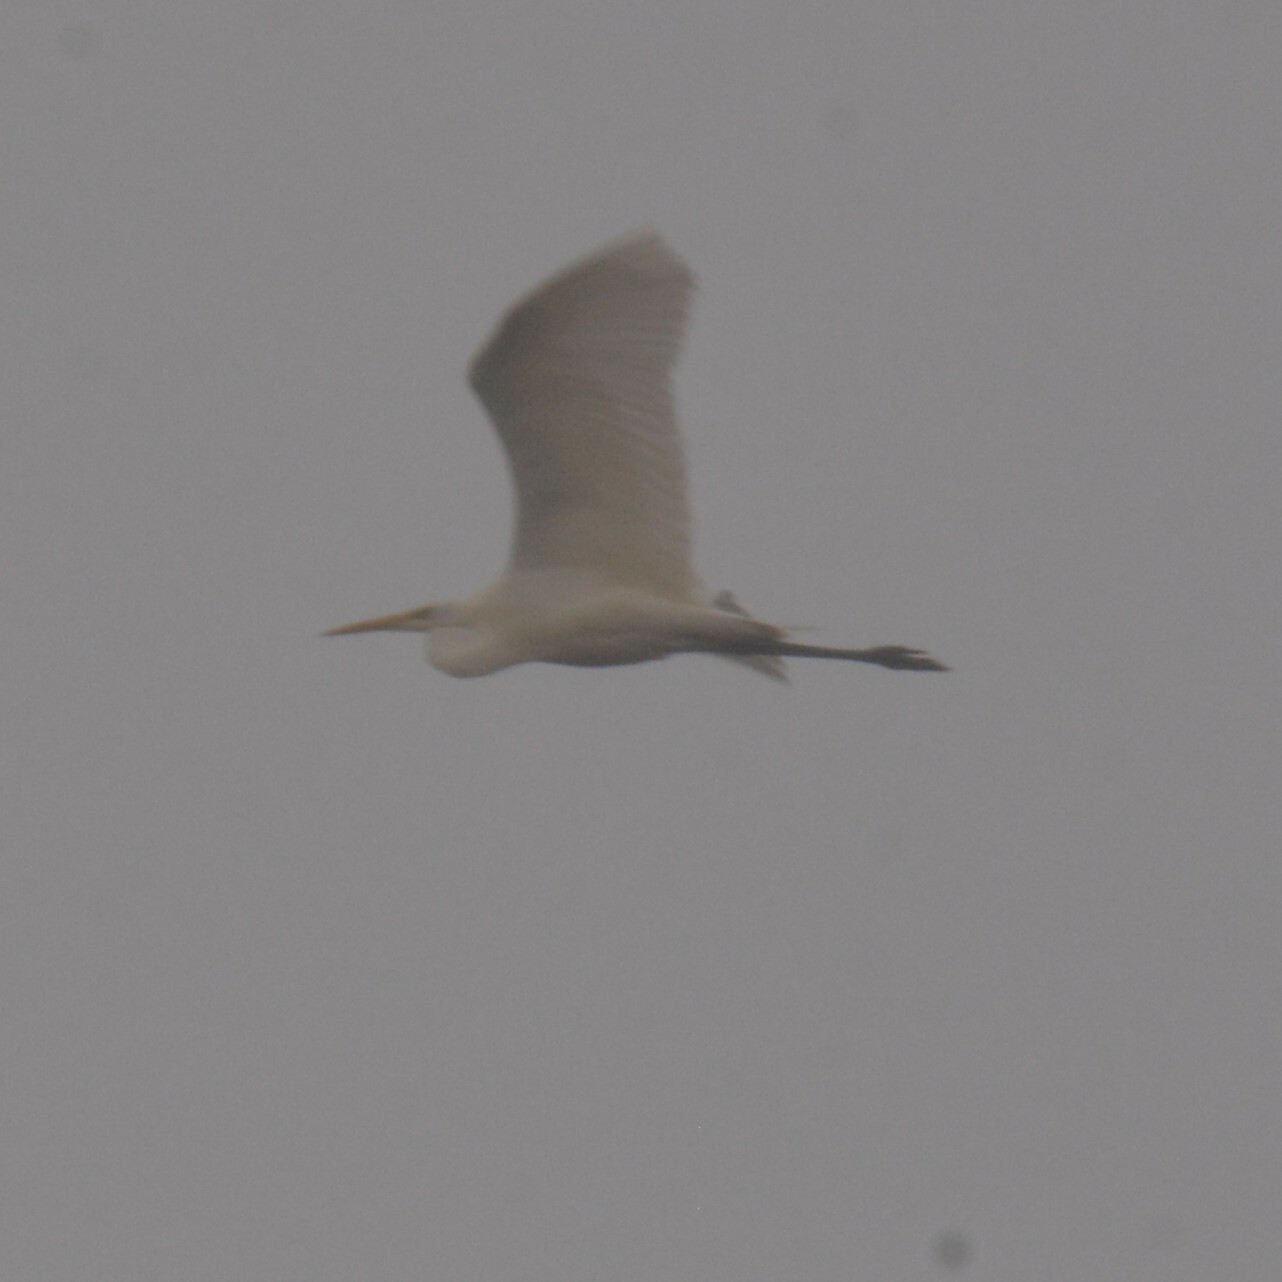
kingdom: Animalia
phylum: Chordata
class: Aves
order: Pelecaniformes
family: Ardeidae
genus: Ardea
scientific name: Ardea alba
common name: Great egret
